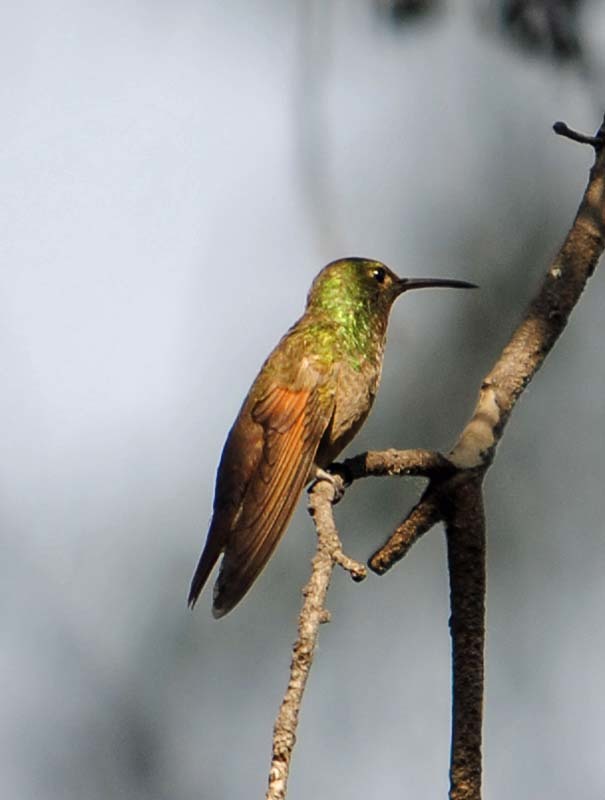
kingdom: Animalia
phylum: Chordata
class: Aves
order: Apodiformes
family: Trochilidae
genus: Saucerottia
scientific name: Saucerottia beryllina
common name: Berylline hummingbird
